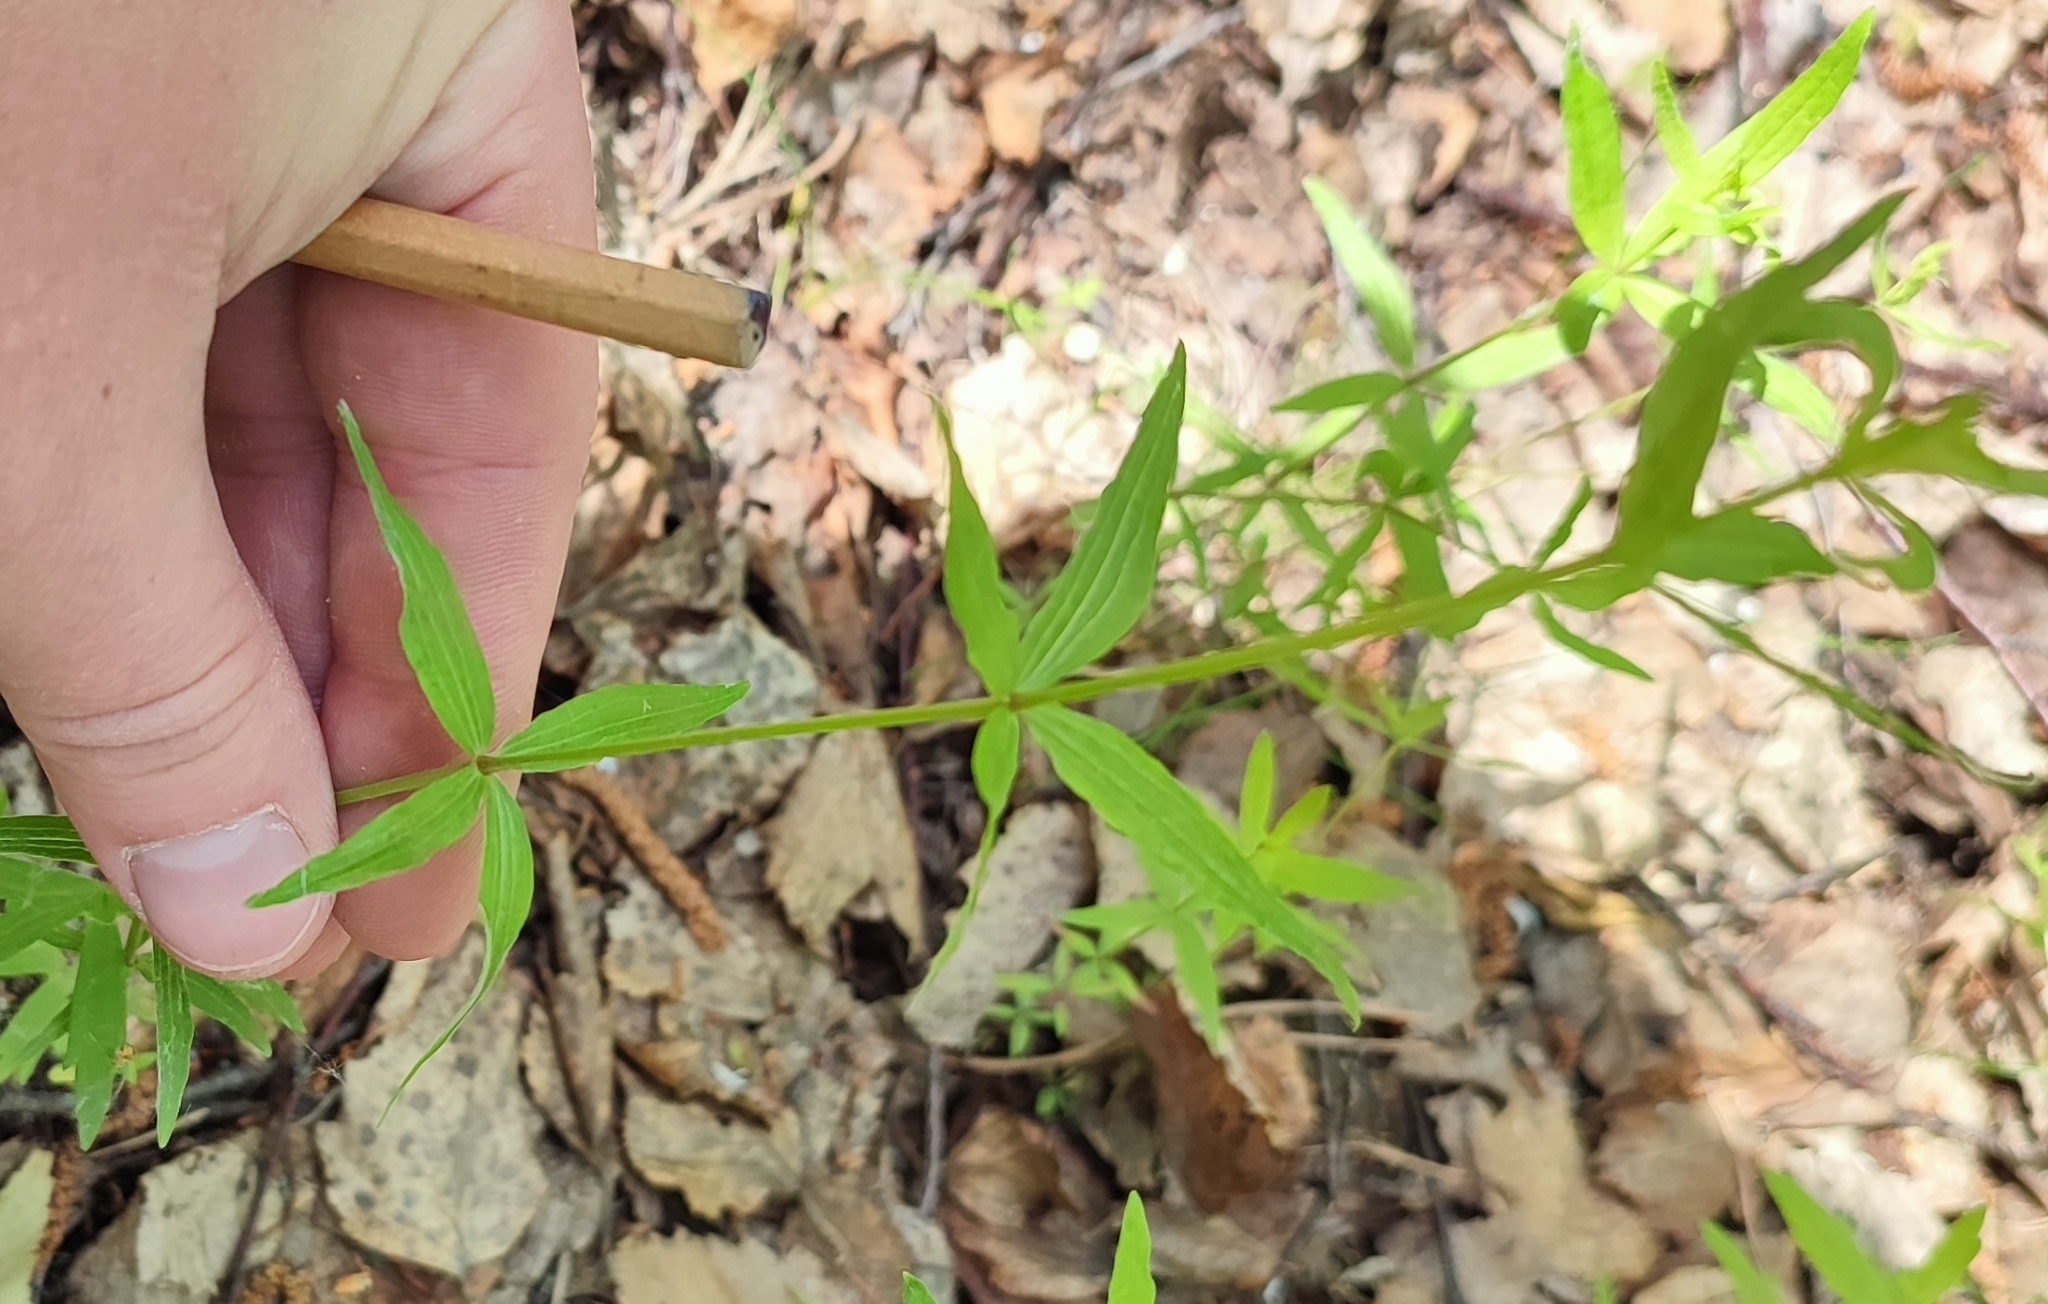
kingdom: Plantae
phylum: Tracheophyta
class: Magnoliopsida
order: Gentianales
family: Rubiaceae
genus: Galium
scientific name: Galium boreale
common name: Northern bedstraw
